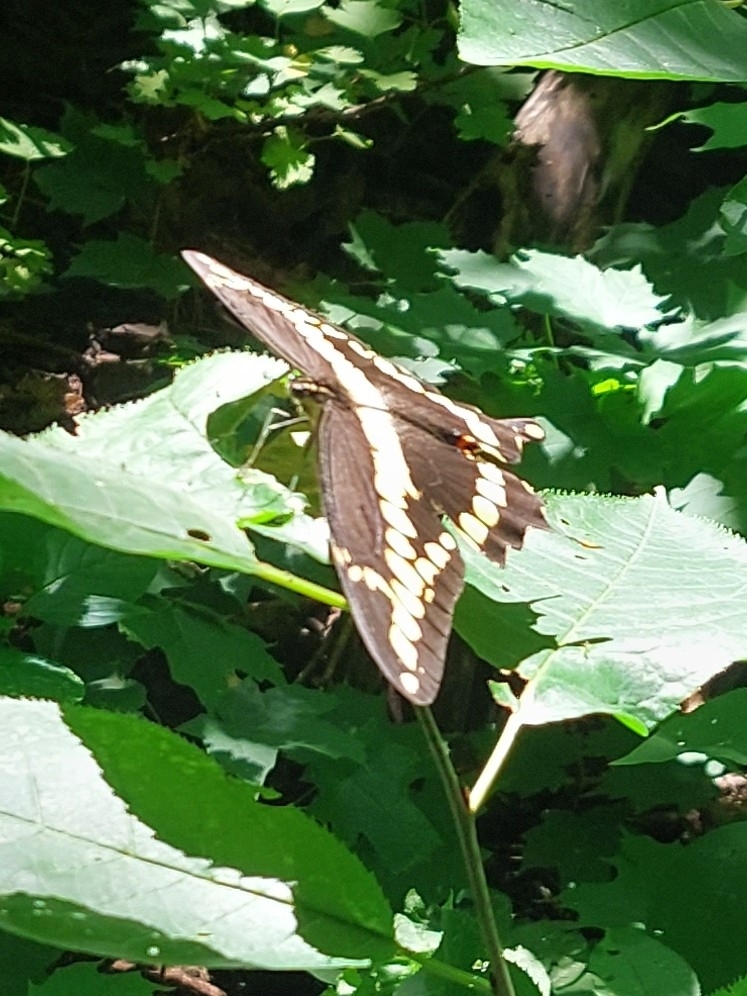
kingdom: Animalia
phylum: Arthropoda
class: Insecta
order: Lepidoptera
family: Papilionidae
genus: Papilio
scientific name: Papilio cresphontes
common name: Giant swallowtail
